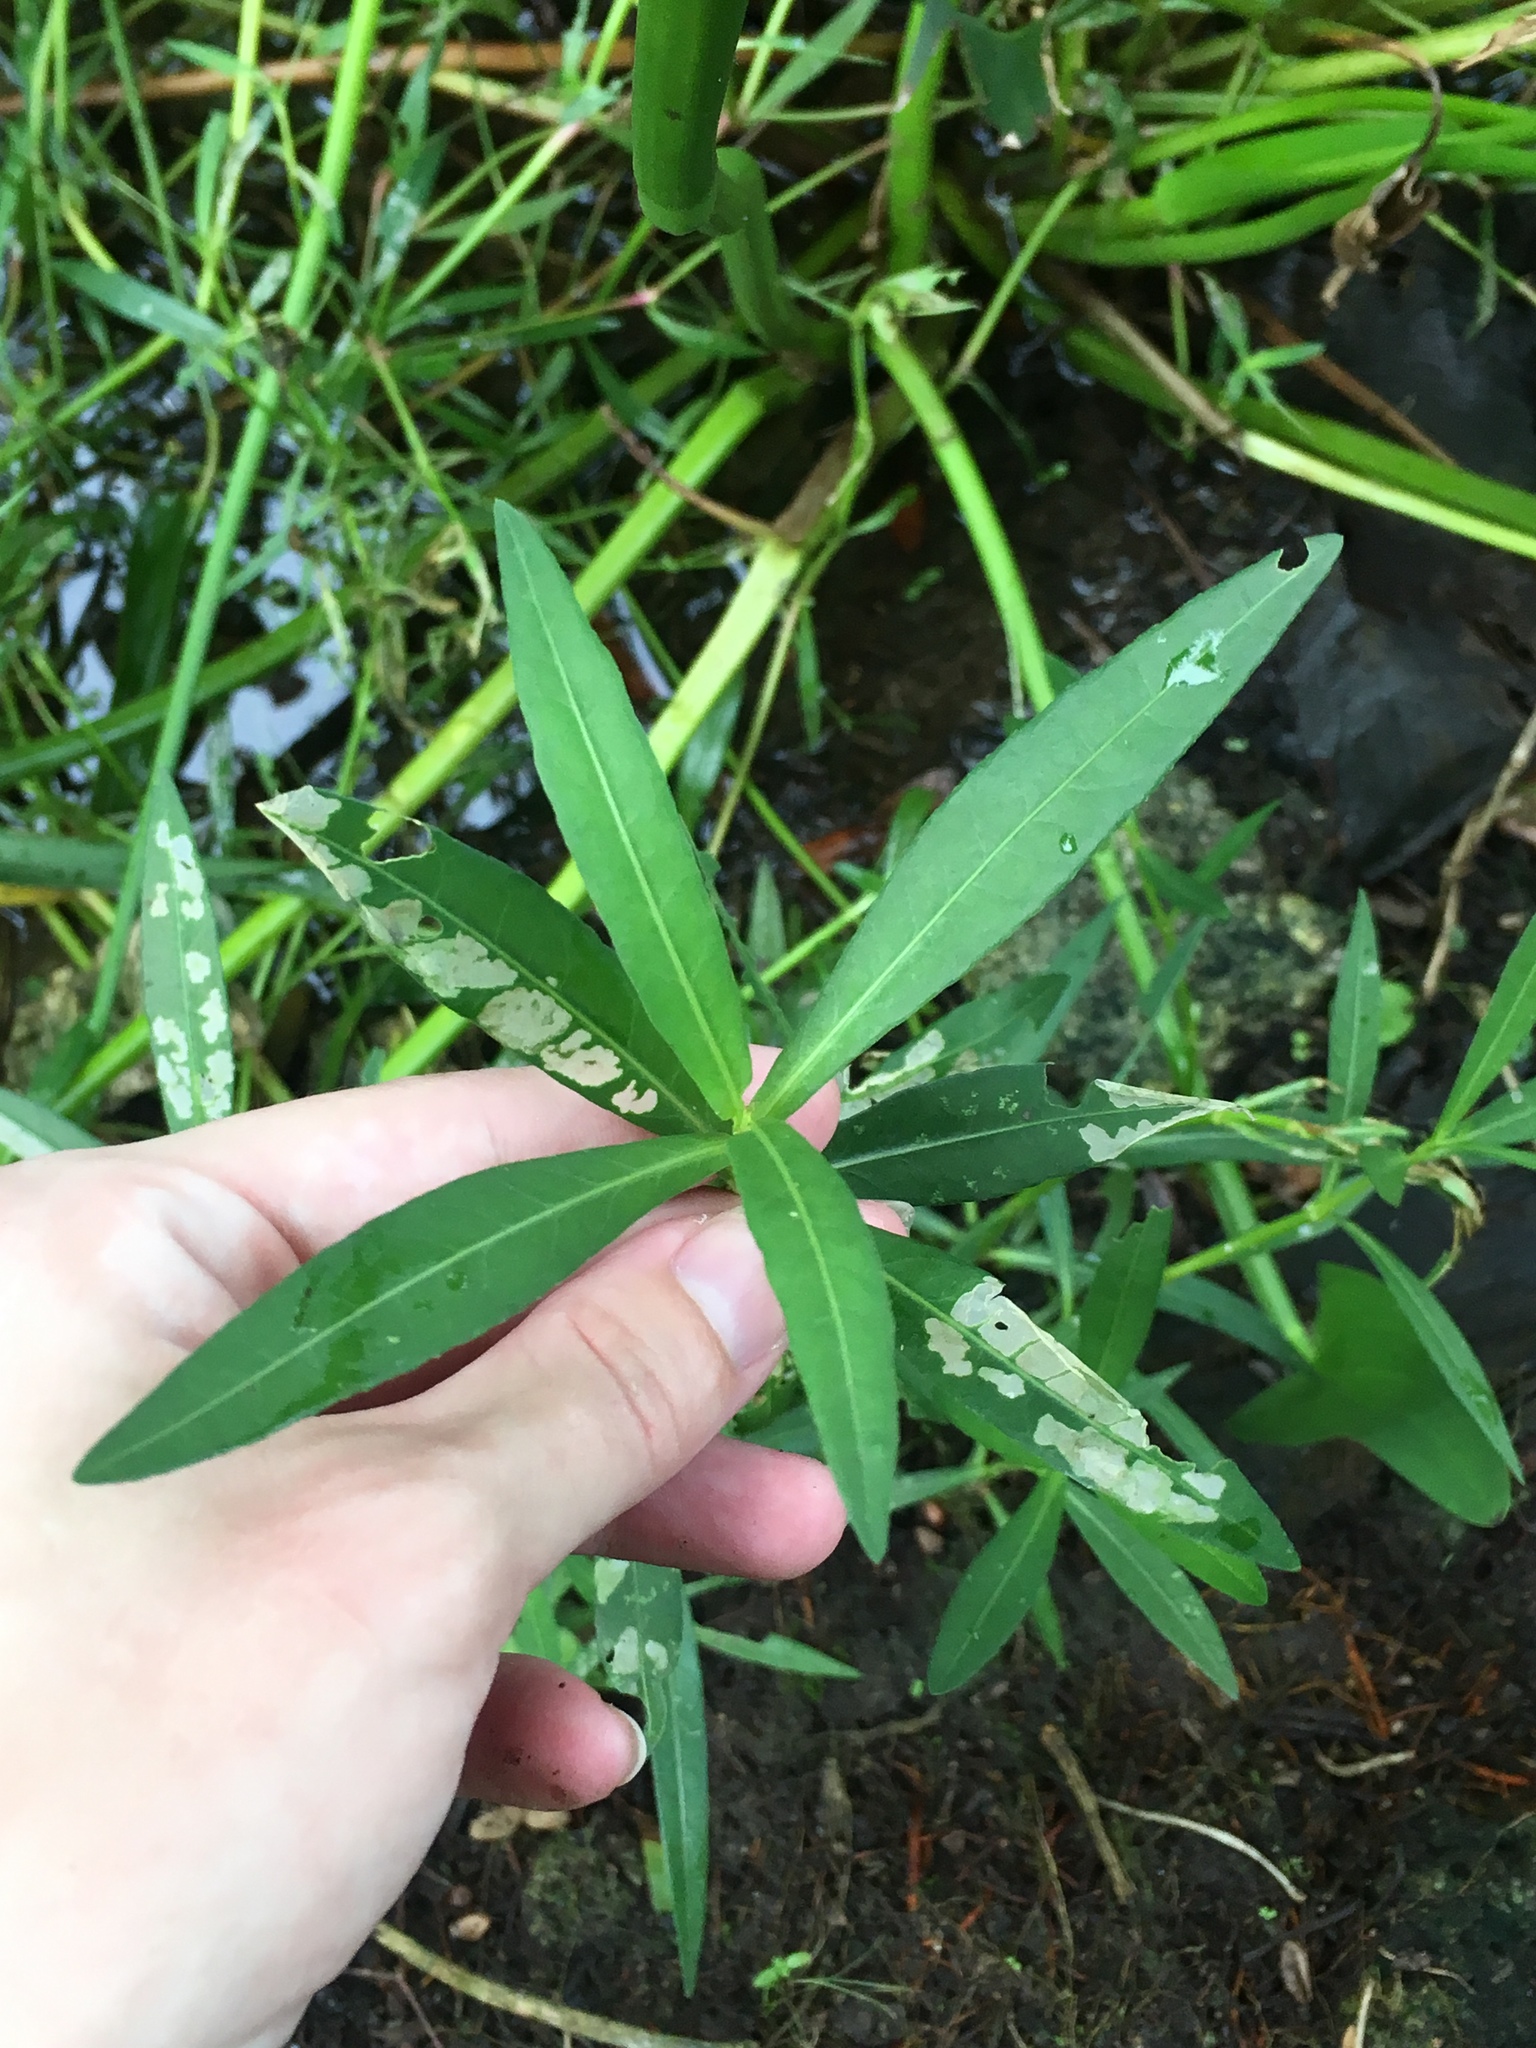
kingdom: Plantae
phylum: Tracheophyta
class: Magnoliopsida
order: Caryophyllales
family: Amaranthaceae
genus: Alternanthera
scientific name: Alternanthera philoxeroides
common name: Alligatorweed
